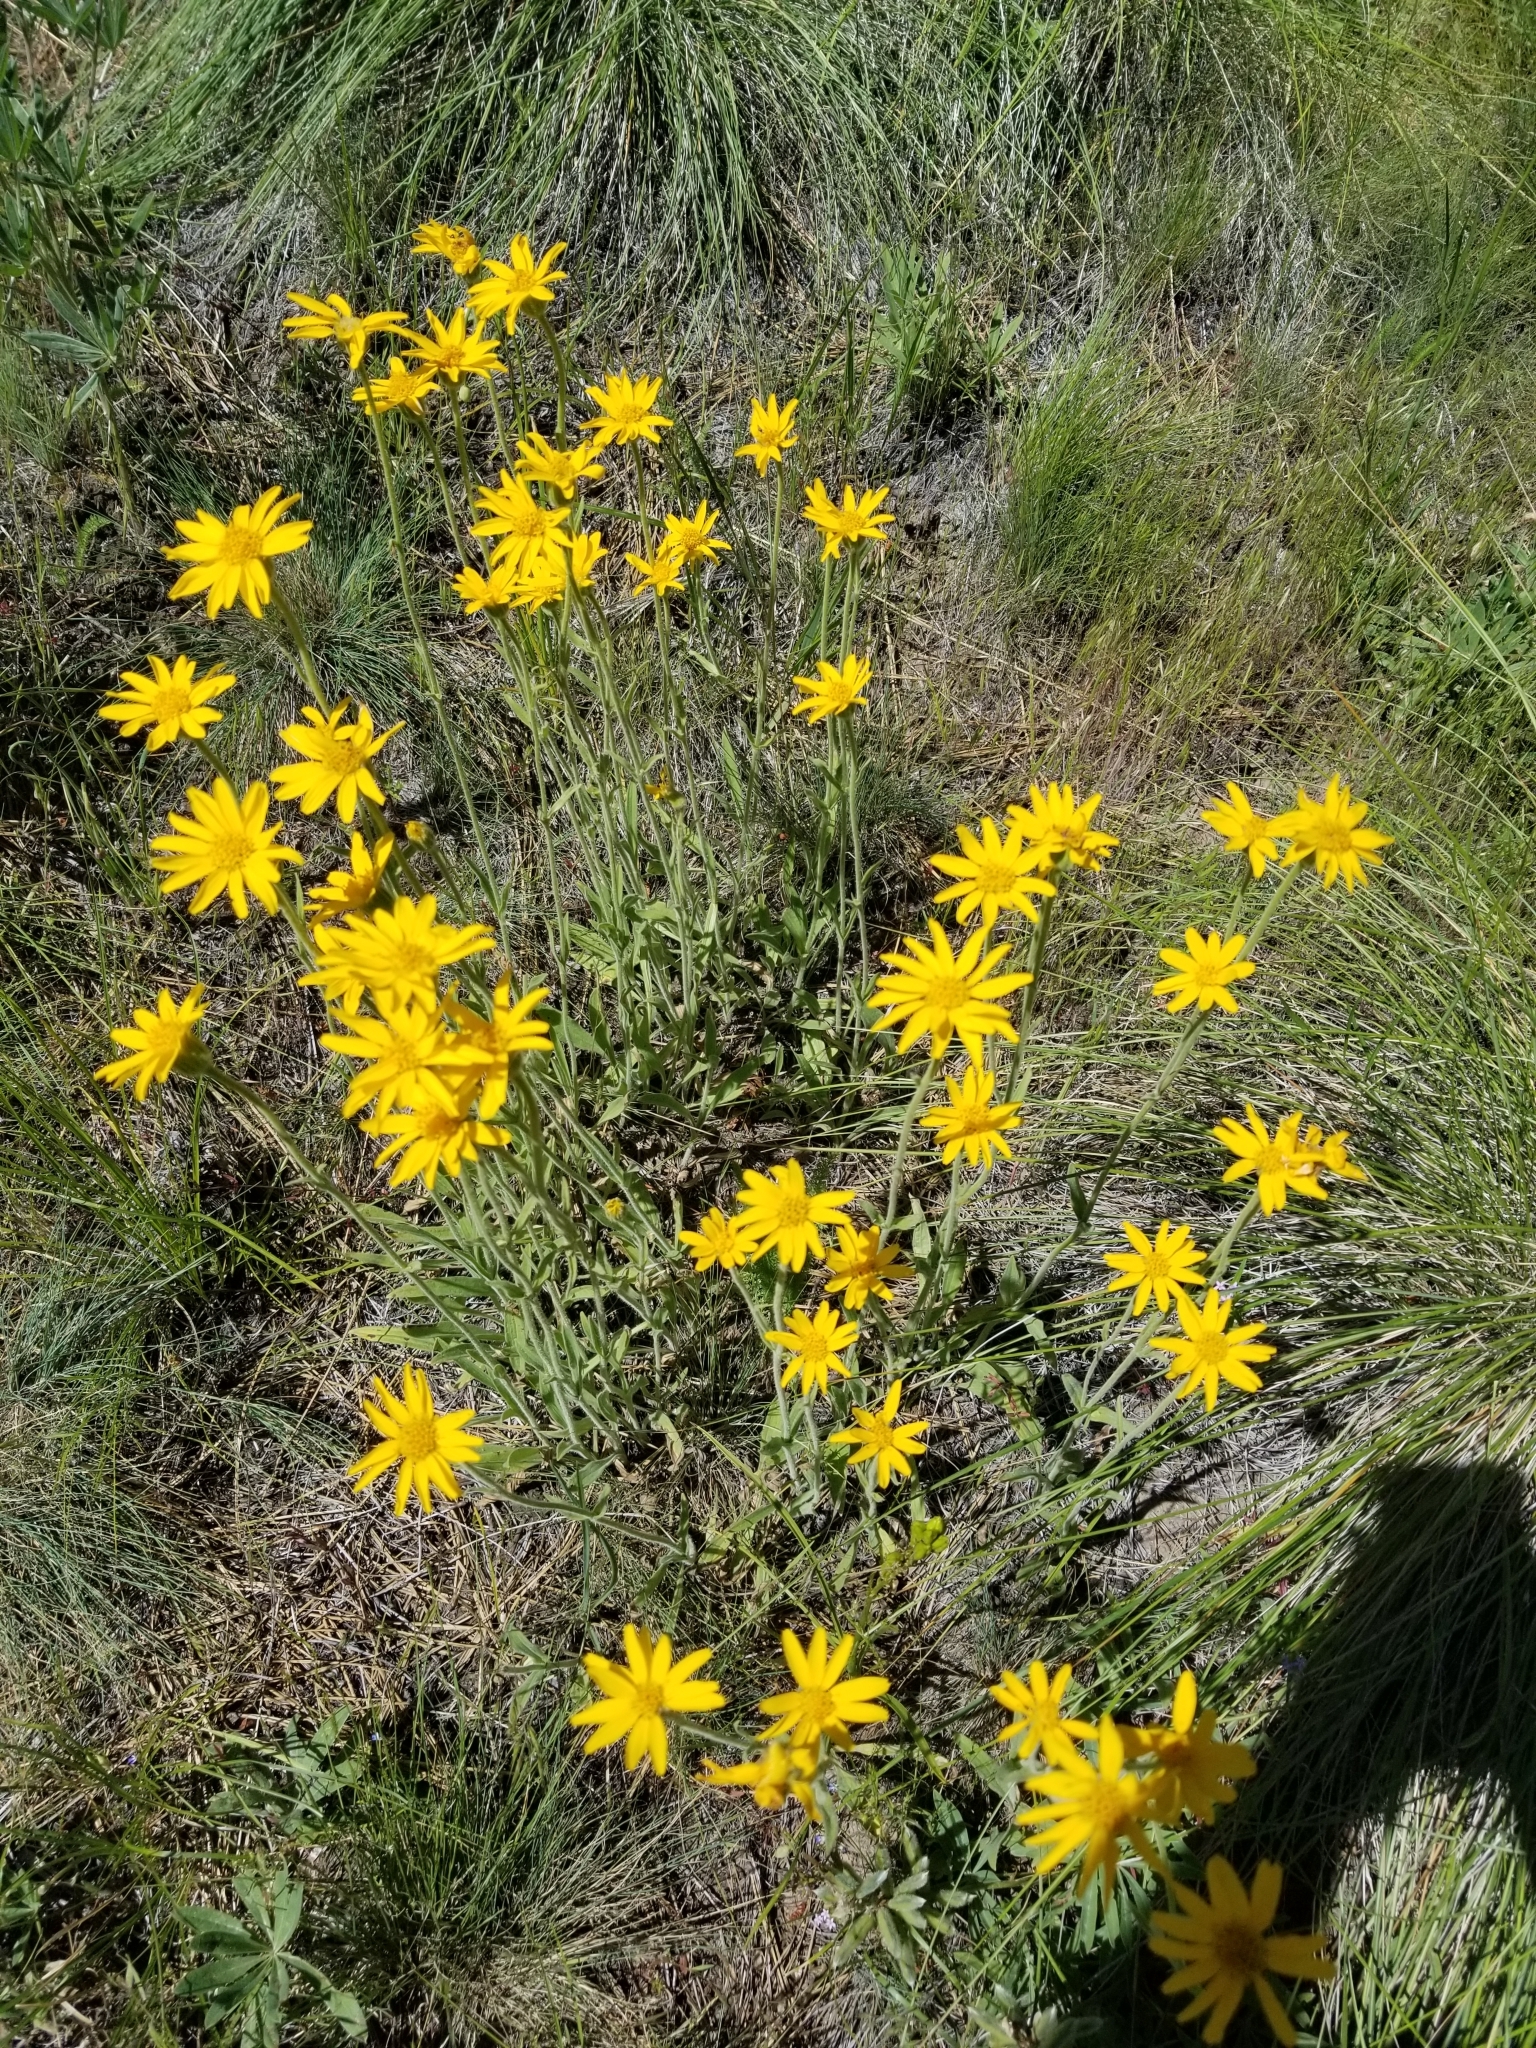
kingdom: Plantae
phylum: Tracheophyta
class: Magnoliopsida
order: Asterales
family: Asteraceae
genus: Arnica
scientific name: Arnica sororia
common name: Twin arnica
